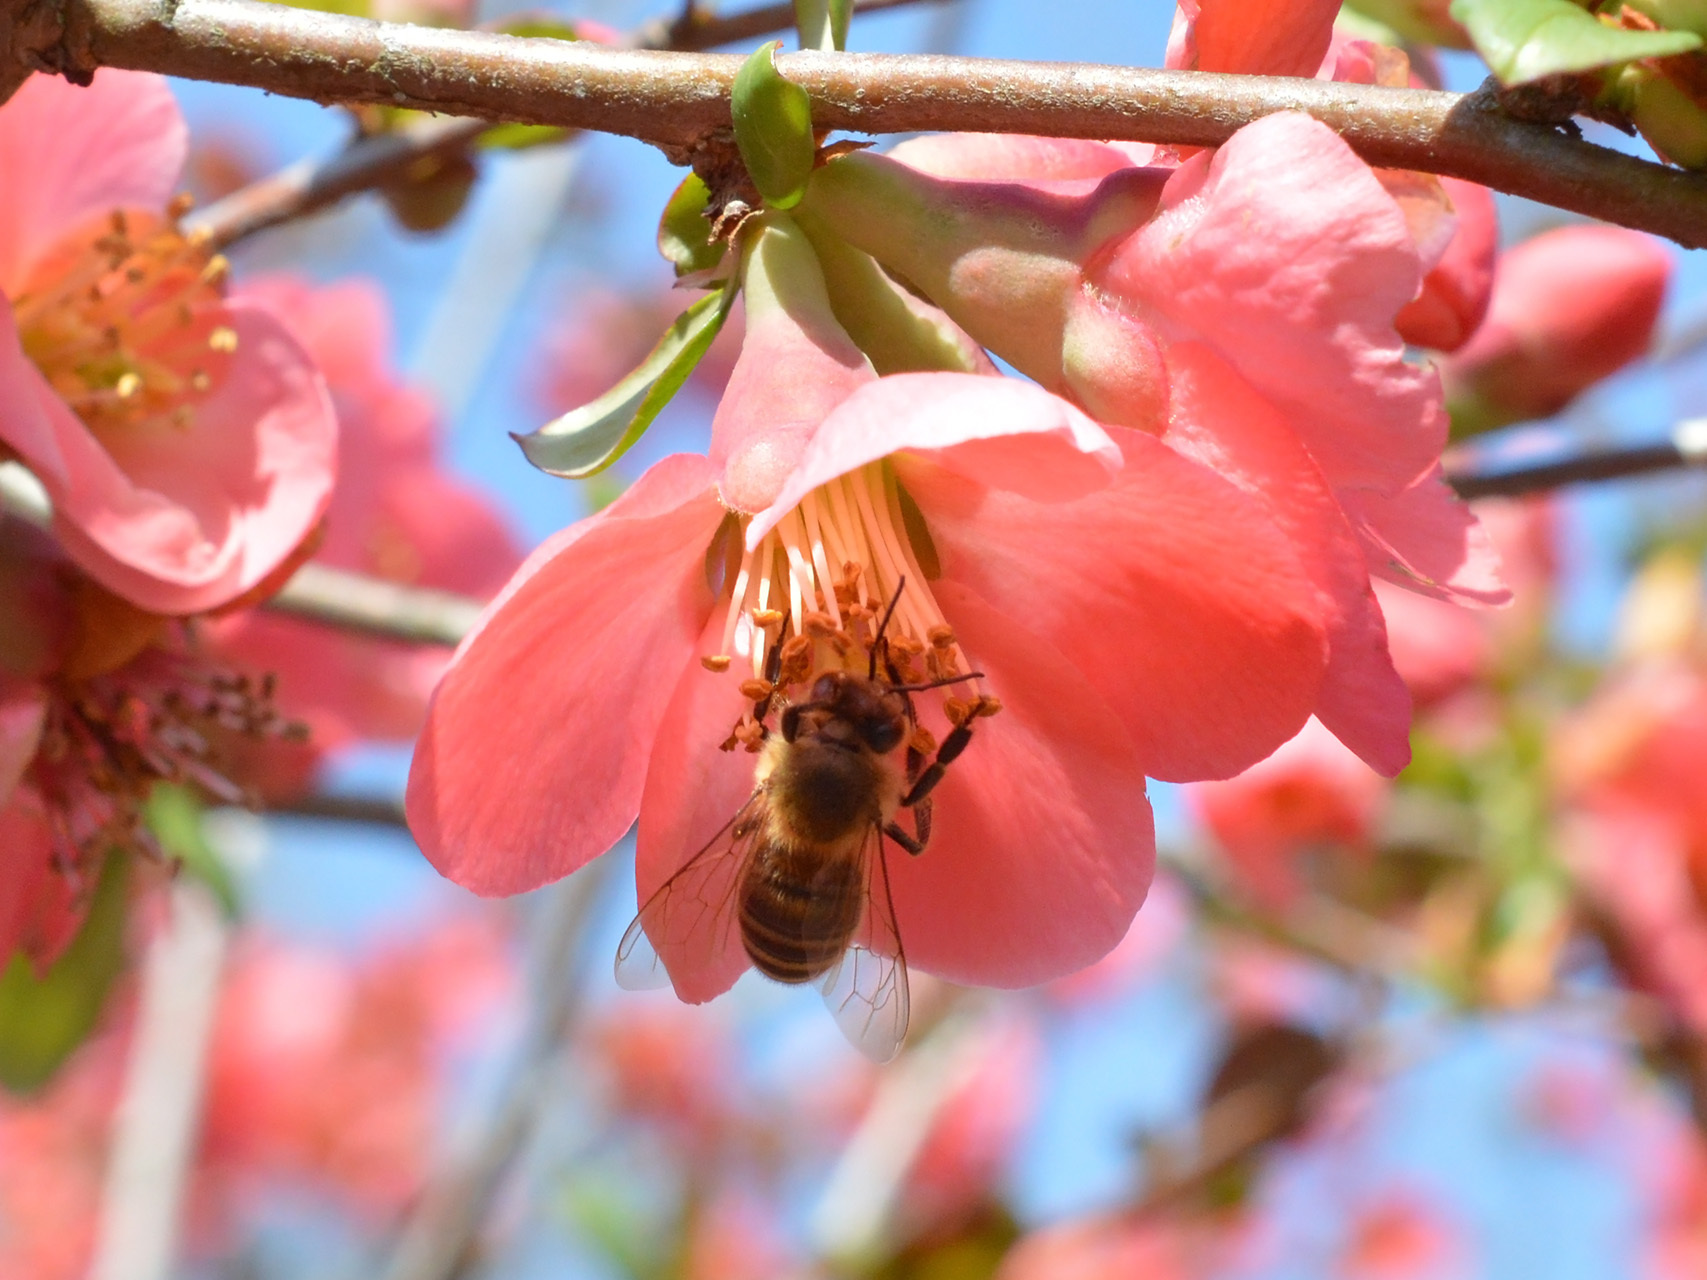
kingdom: Animalia
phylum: Arthropoda
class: Insecta
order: Hymenoptera
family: Apidae
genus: Apis
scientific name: Apis mellifera
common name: Honey bee
